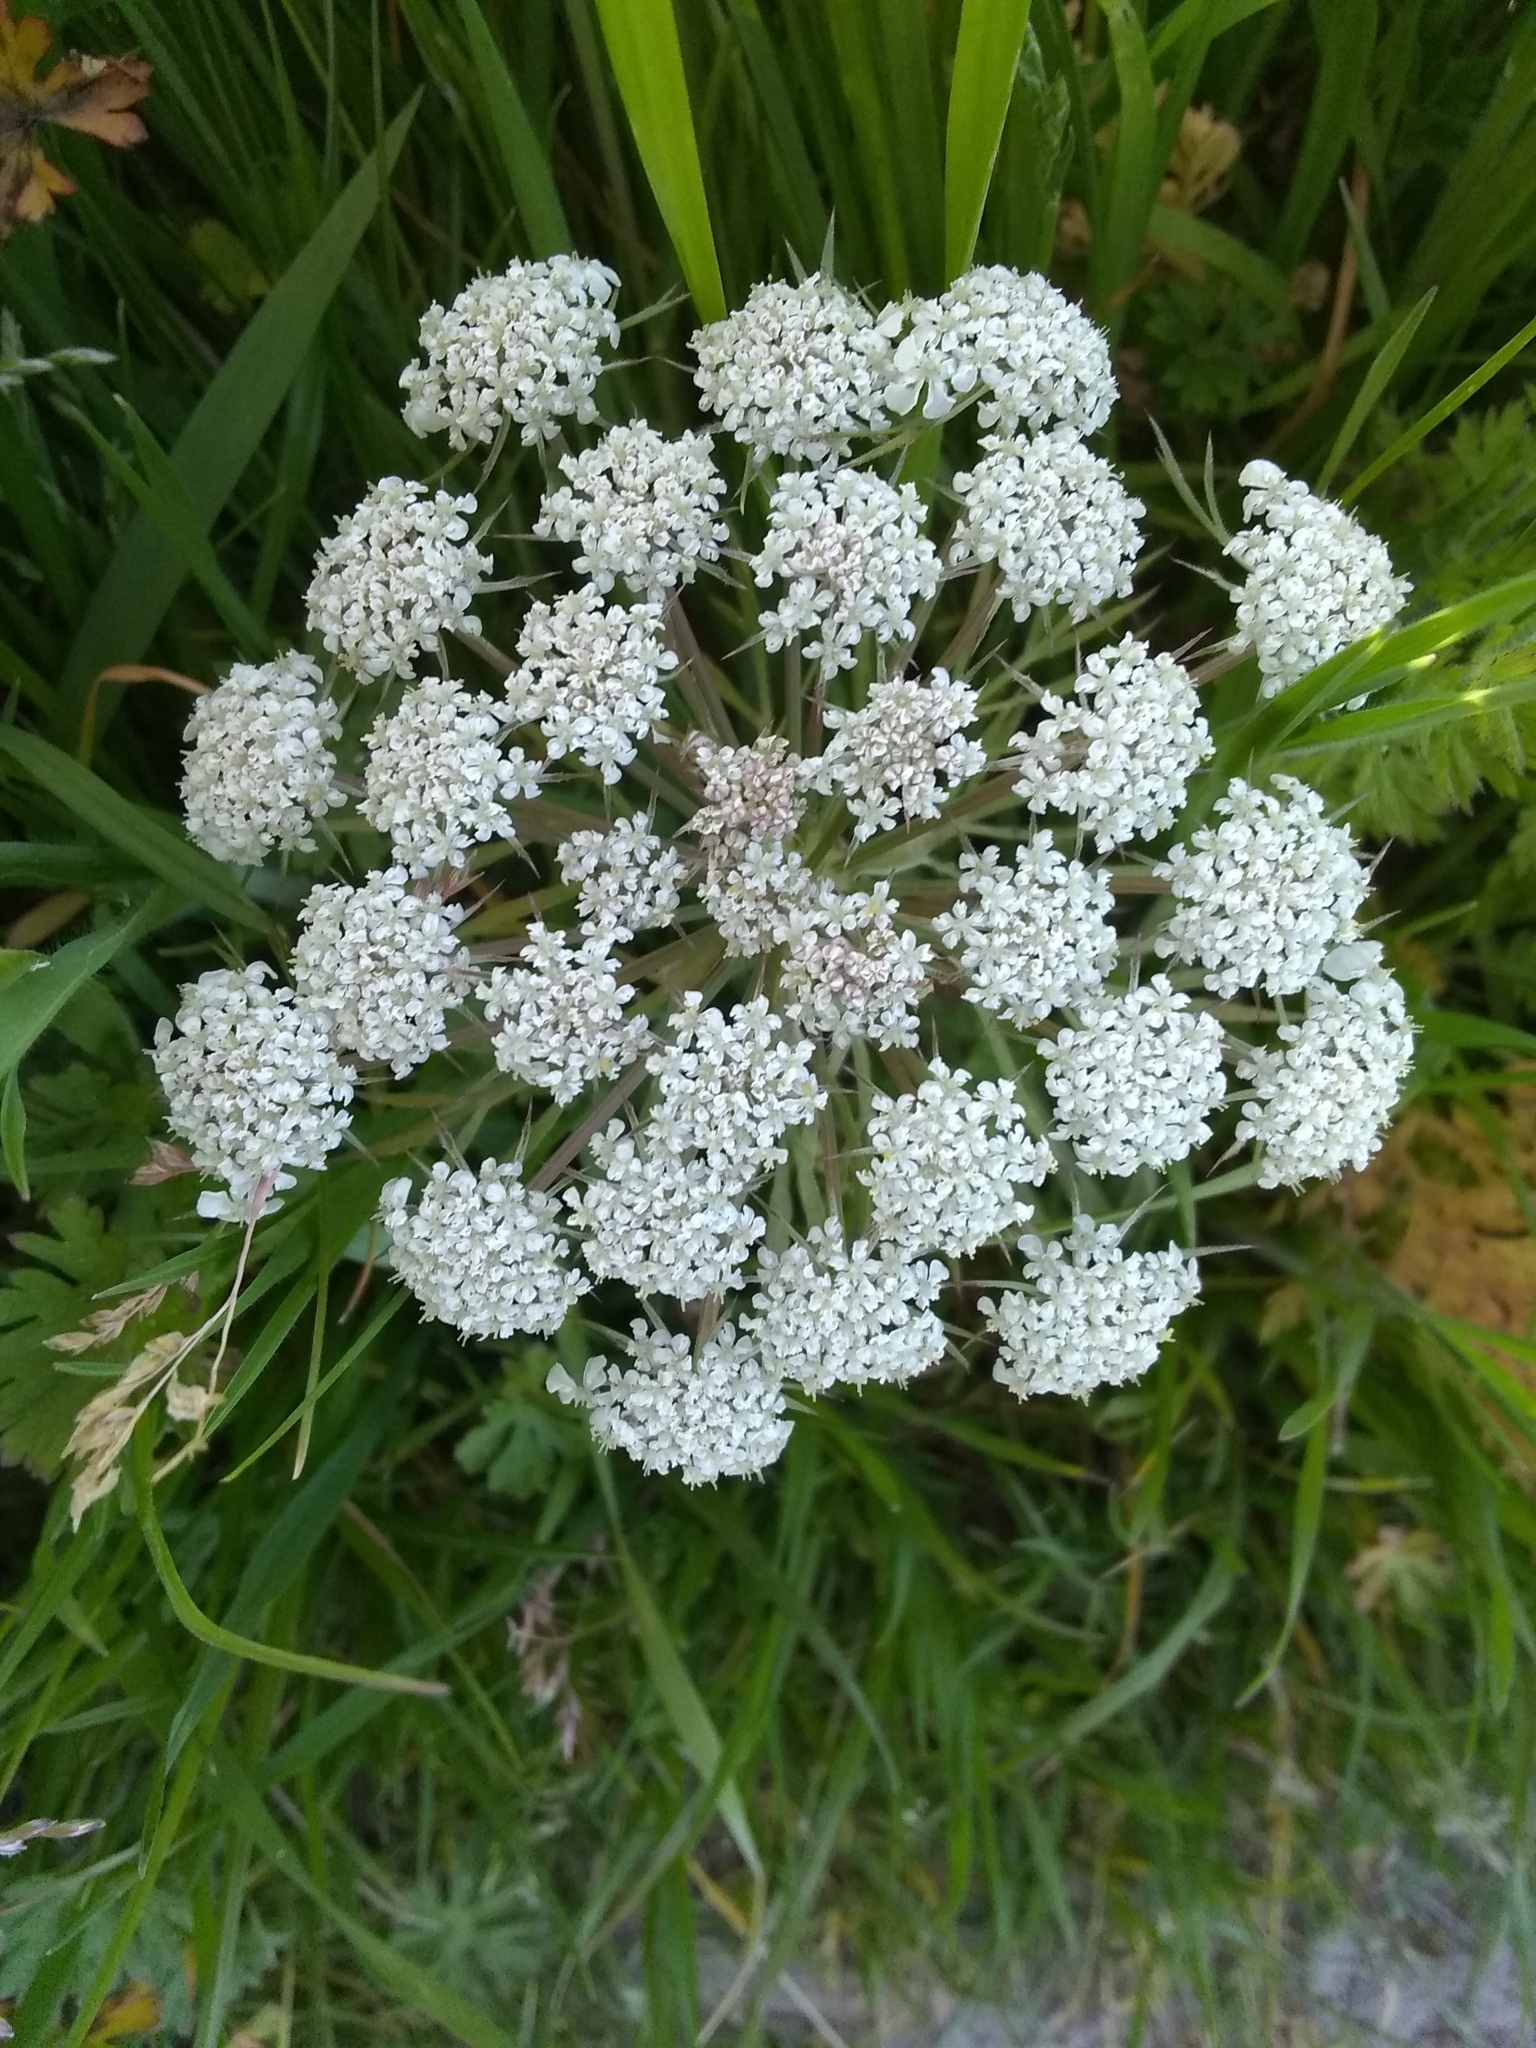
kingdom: Plantae
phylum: Tracheophyta
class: Magnoliopsida
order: Apiales
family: Apiaceae
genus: Daucus
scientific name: Daucus carota
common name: Wild carrot
